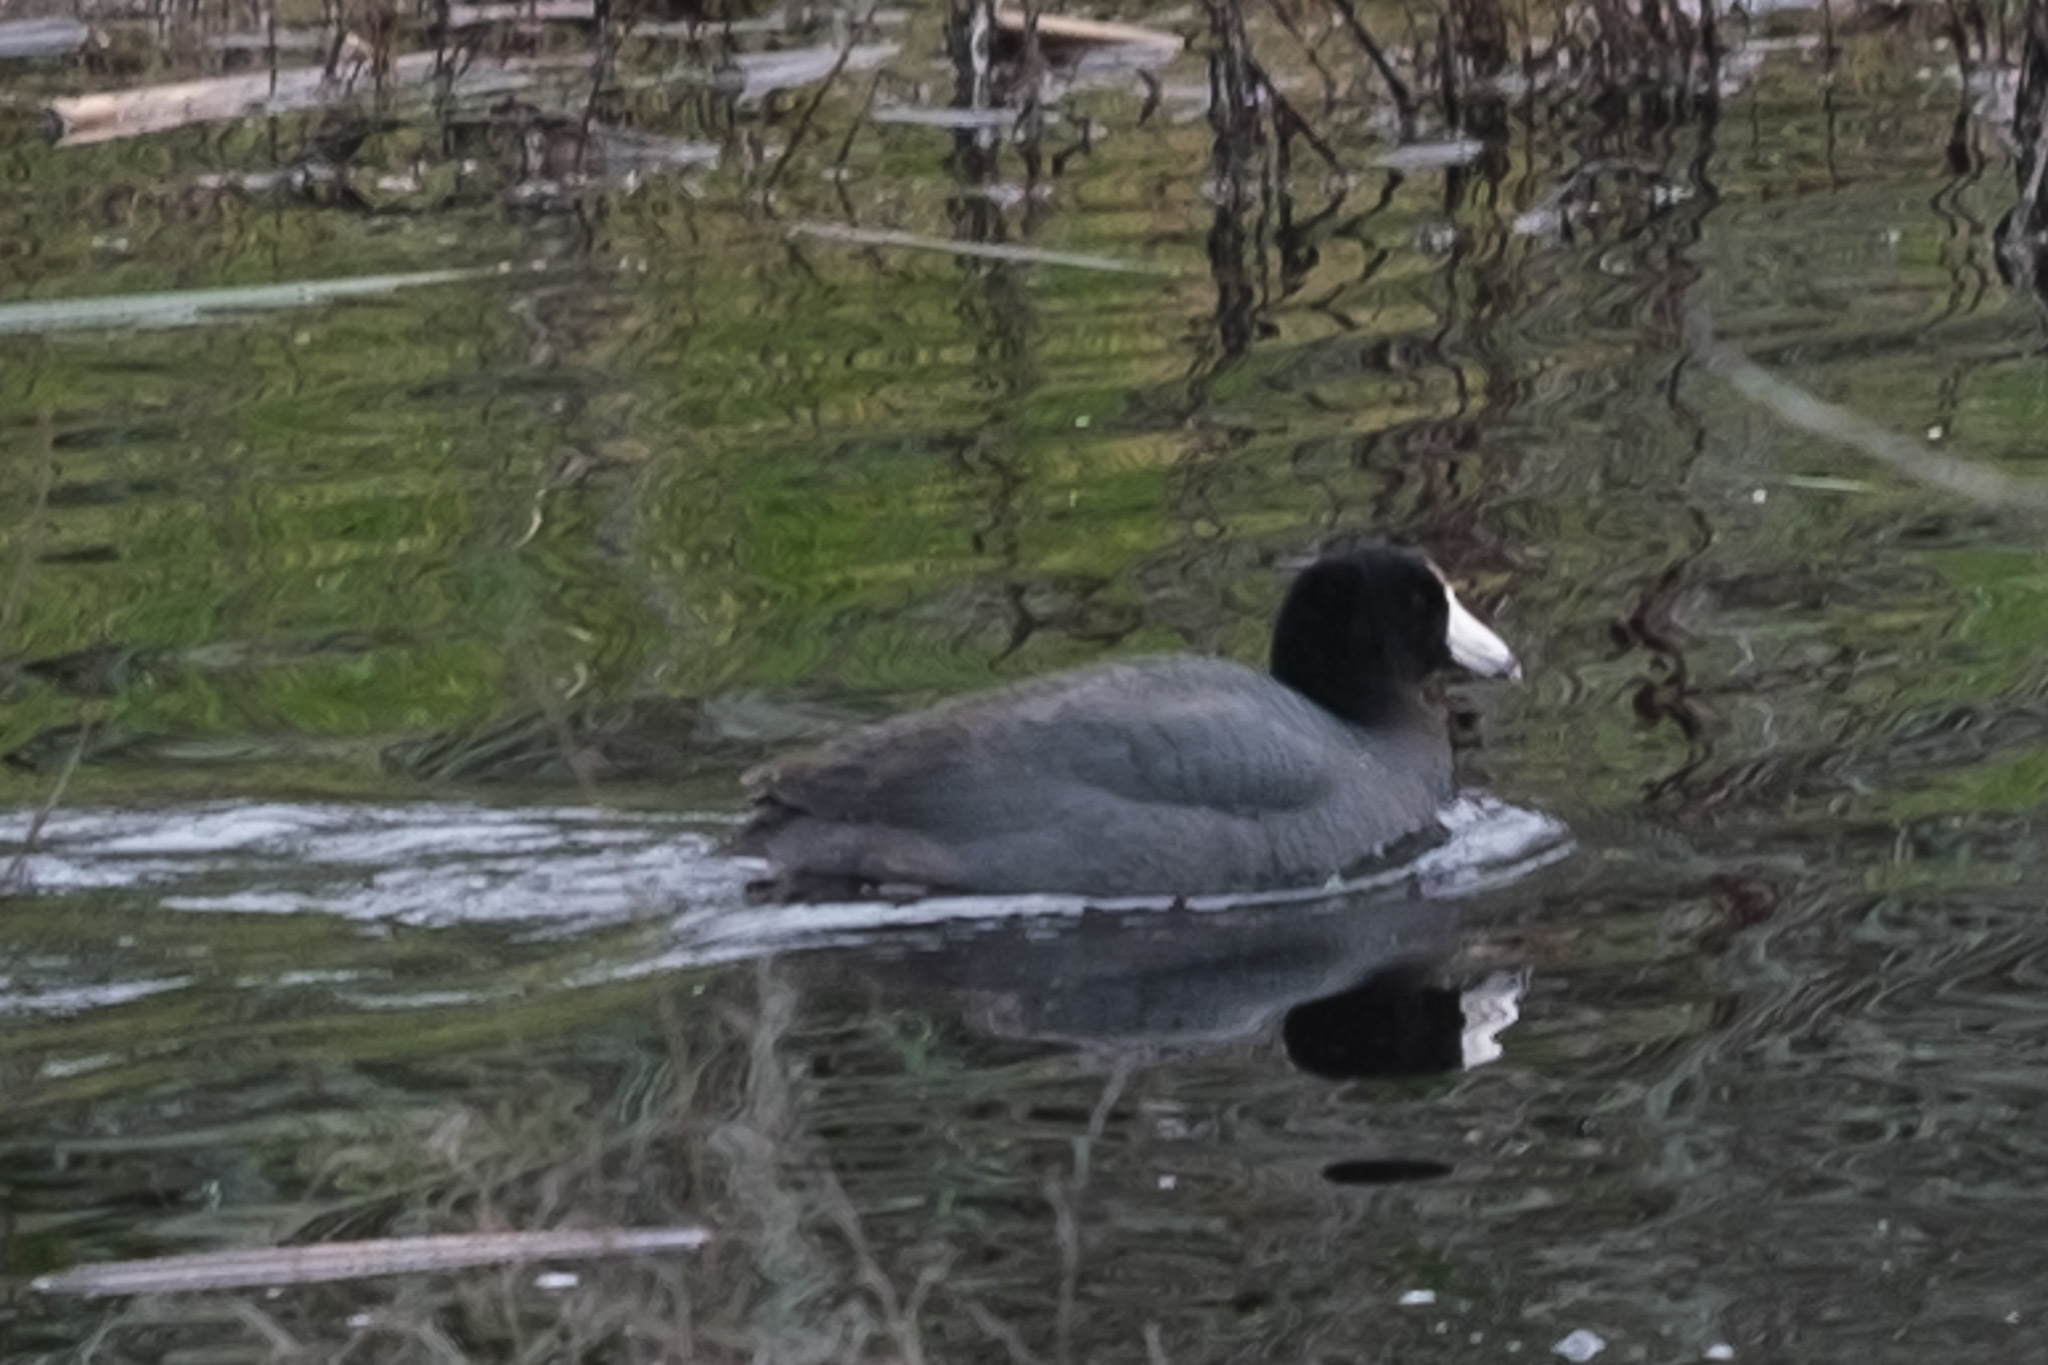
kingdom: Animalia
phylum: Chordata
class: Aves
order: Gruiformes
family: Rallidae
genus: Fulica
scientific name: Fulica americana
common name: American coot
